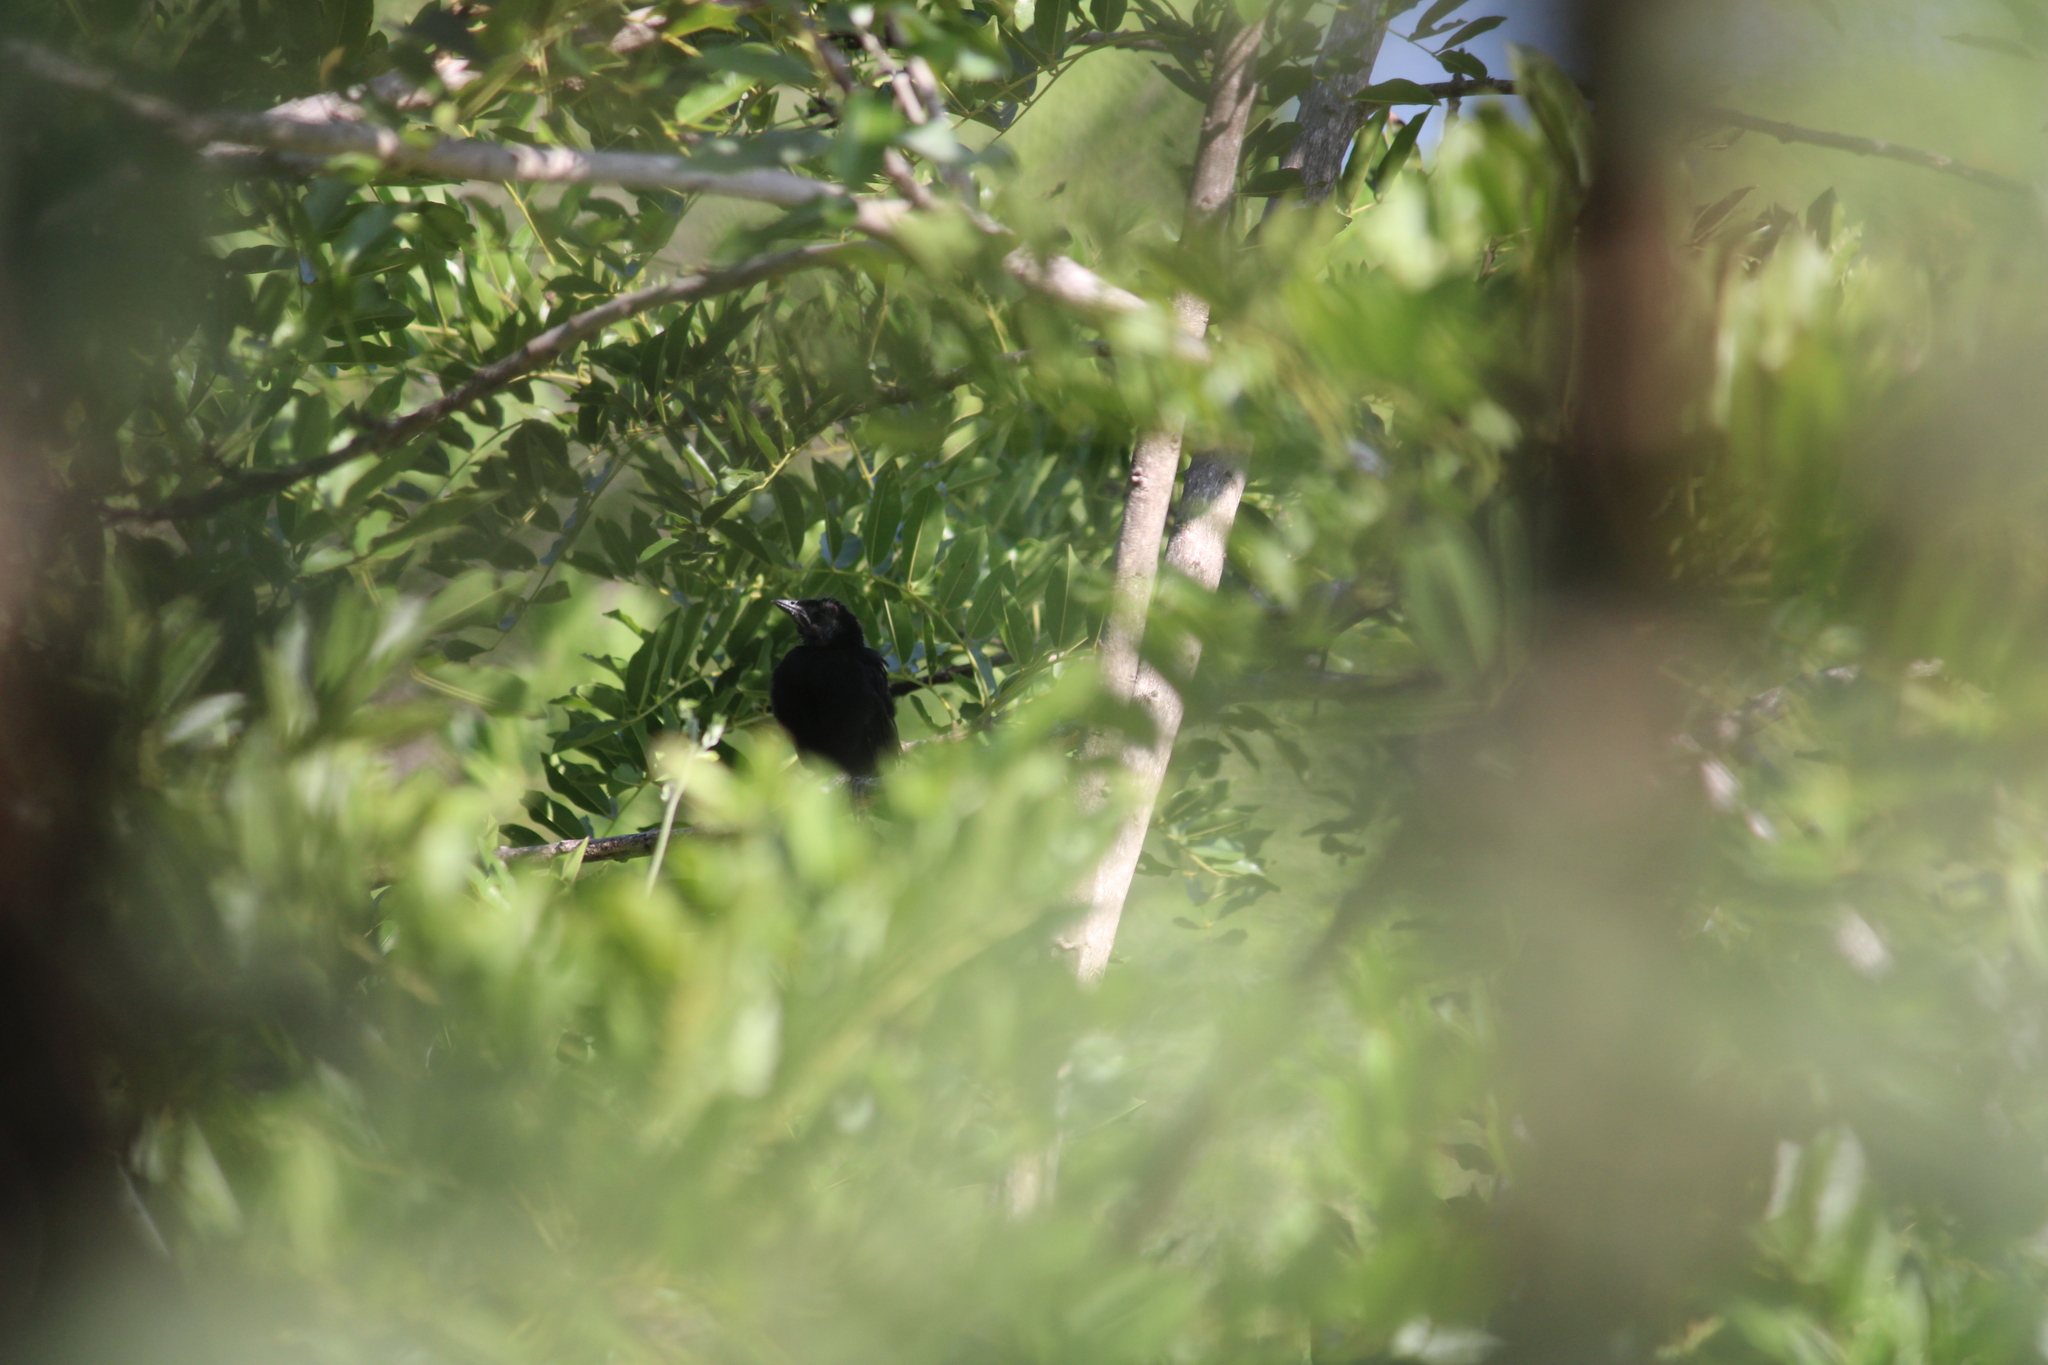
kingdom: Animalia
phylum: Chordata
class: Aves
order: Passeriformes
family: Icteridae
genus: Dives
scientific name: Dives dives
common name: Melodious blackbird
